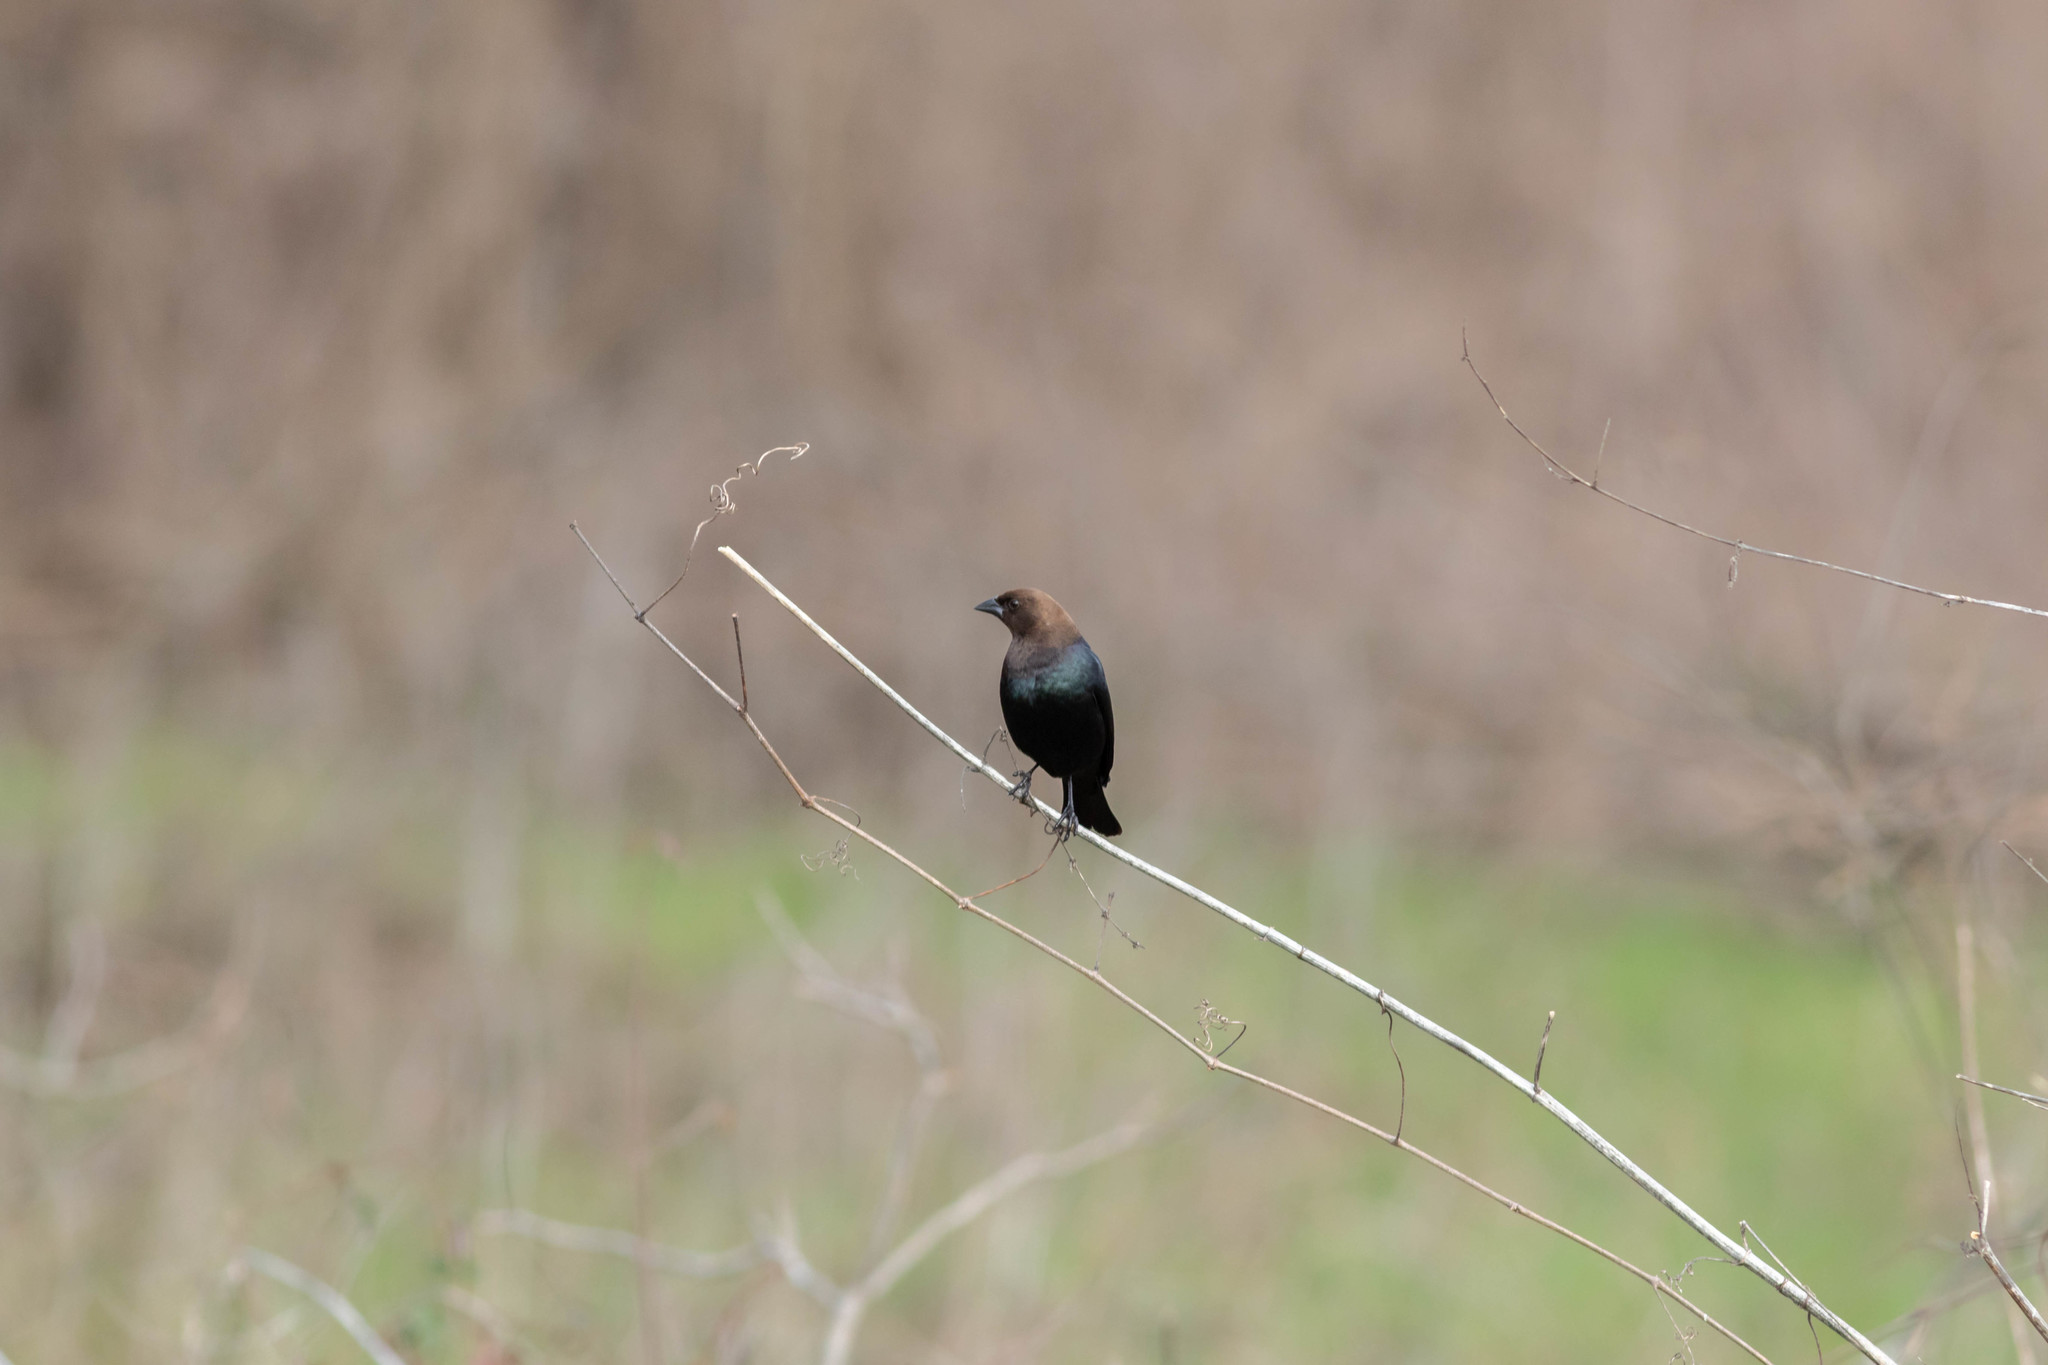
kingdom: Animalia
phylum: Chordata
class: Aves
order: Passeriformes
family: Icteridae
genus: Molothrus
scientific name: Molothrus ater
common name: Brown-headed cowbird
